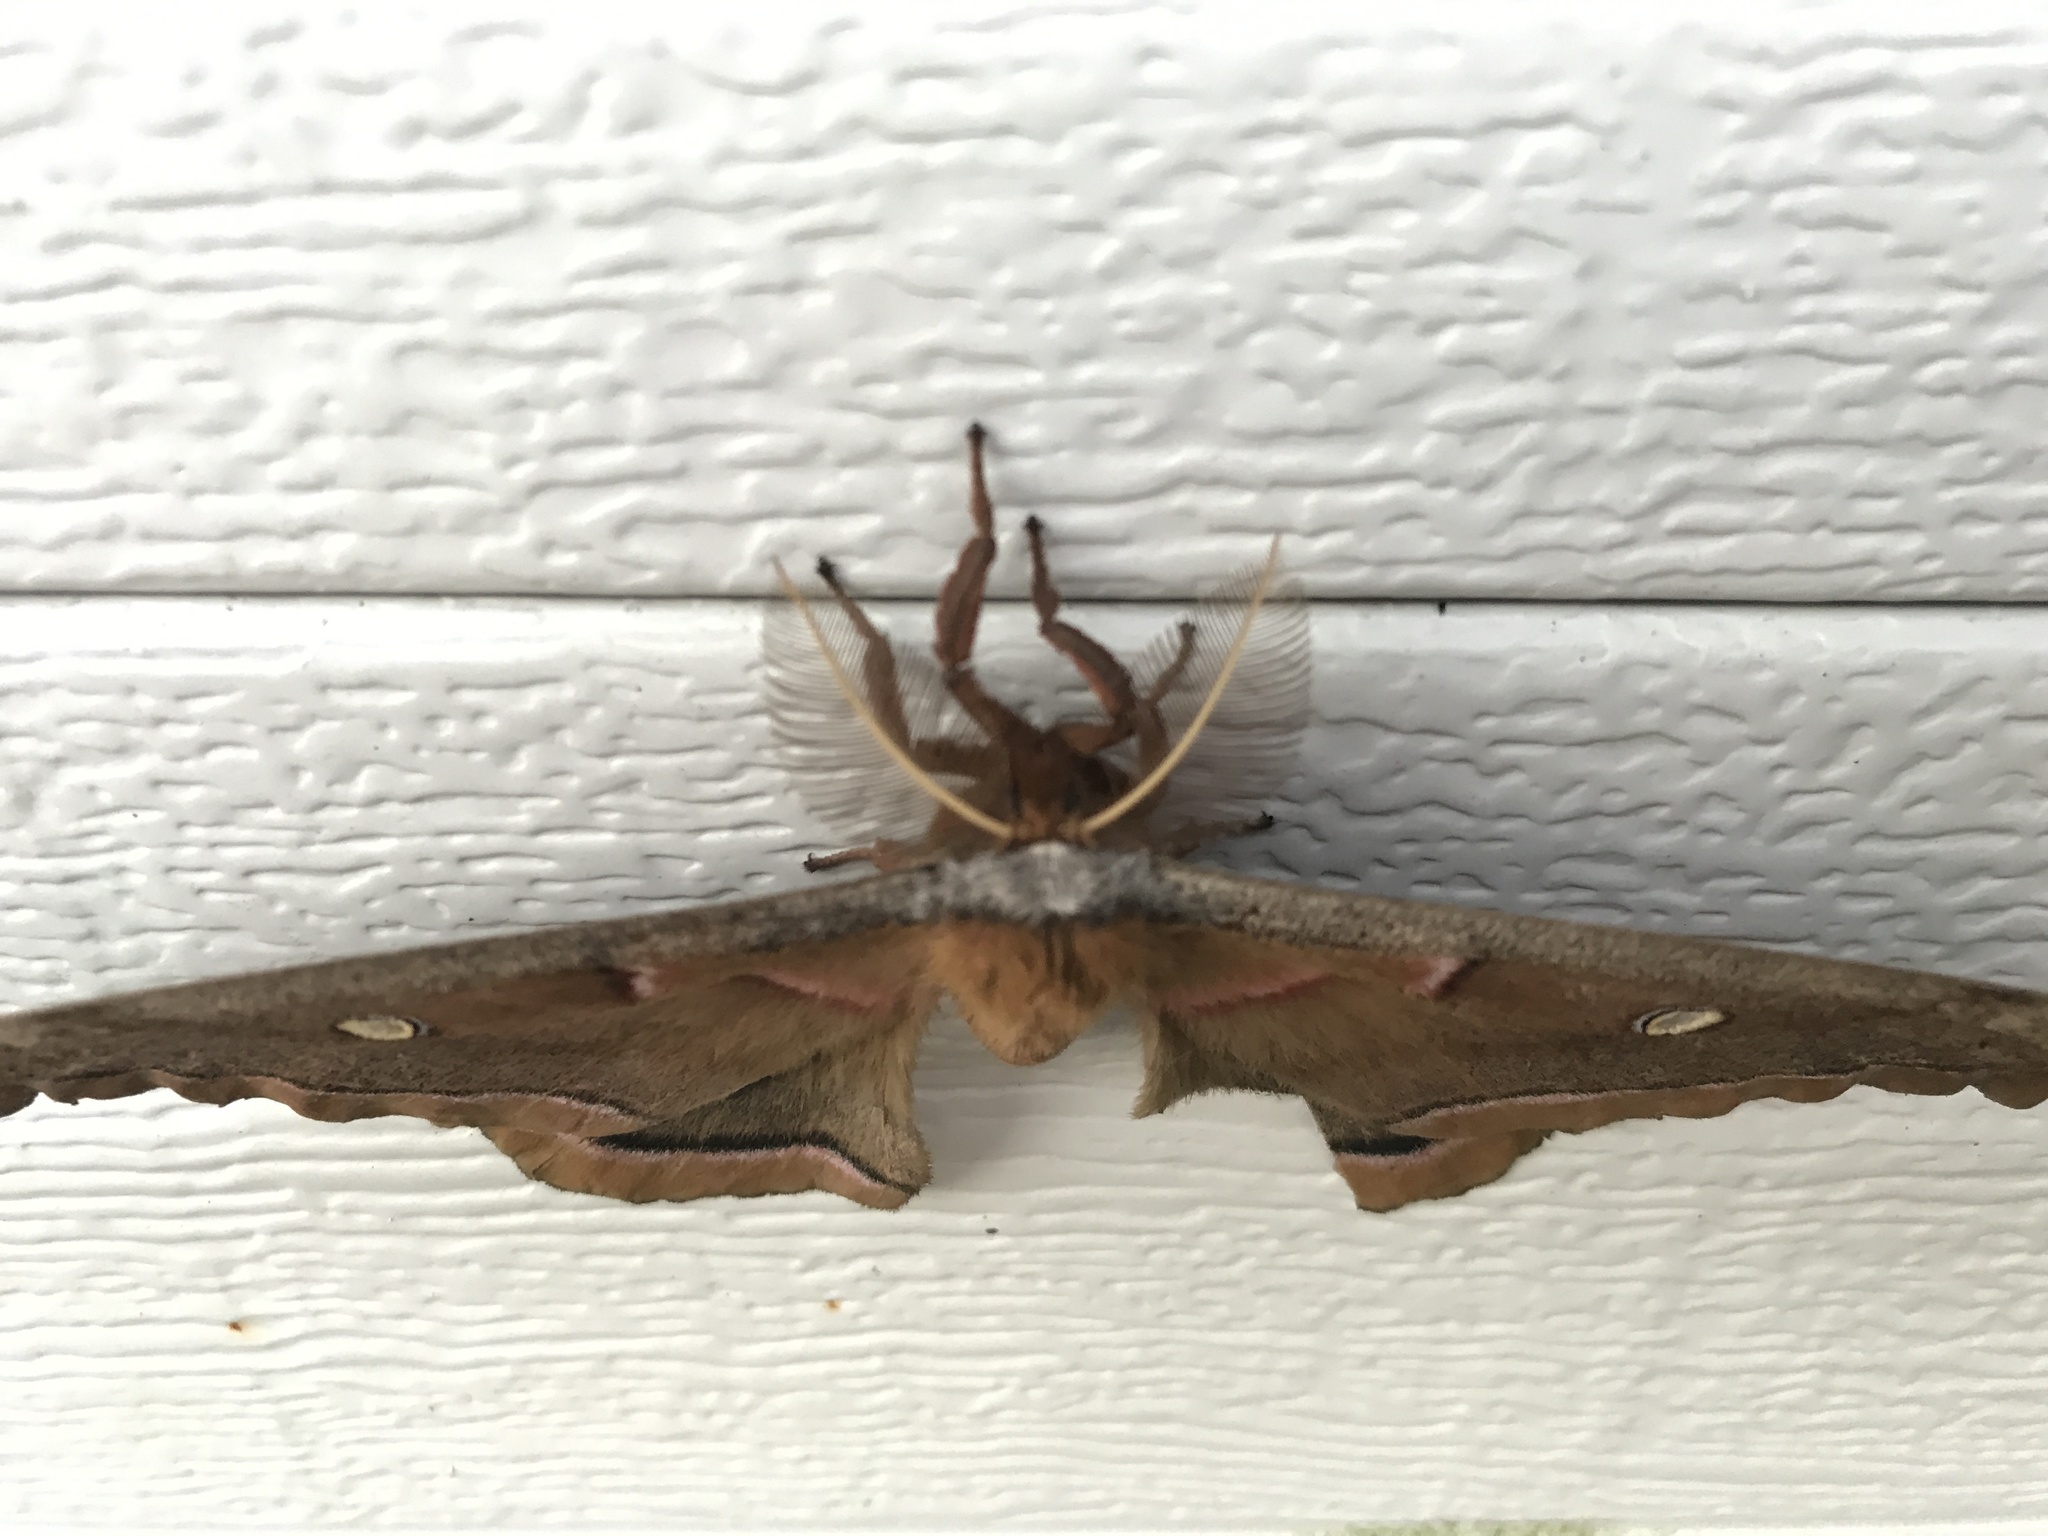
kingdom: Animalia
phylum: Arthropoda
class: Insecta
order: Lepidoptera
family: Saturniidae
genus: Antheraea
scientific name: Antheraea polyphemus
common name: Polyphemus moth
